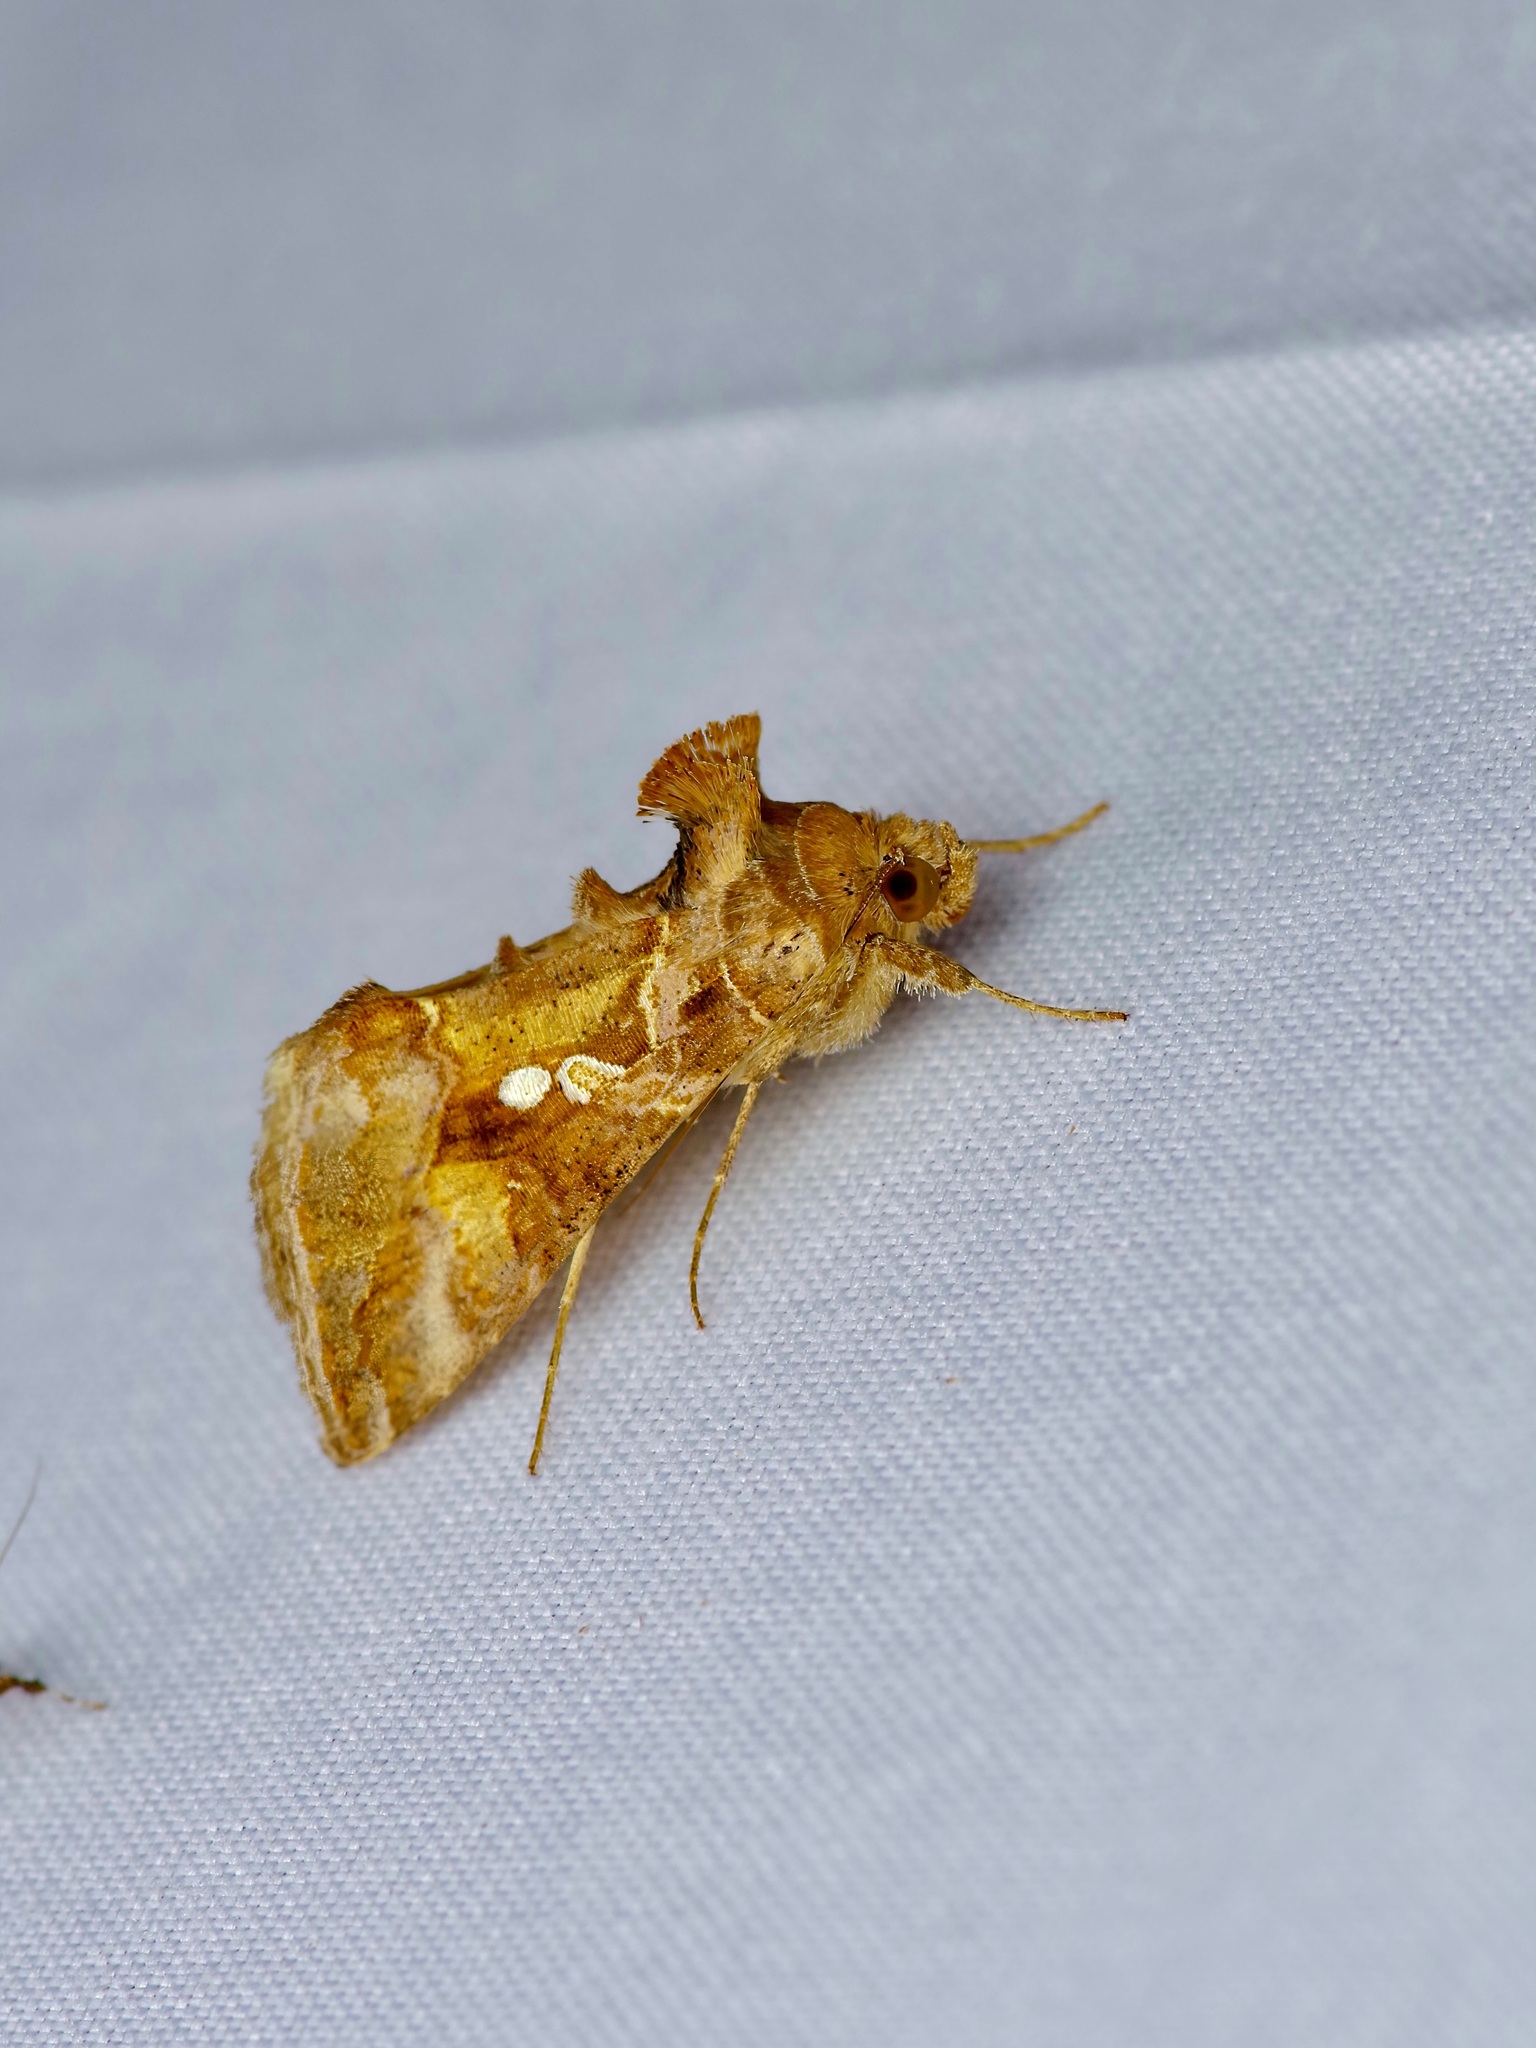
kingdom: Animalia
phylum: Arthropoda
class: Insecta
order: Lepidoptera
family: Noctuidae
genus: Chrysodeixis
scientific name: Chrysodeixis includens
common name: Cutworm moth
